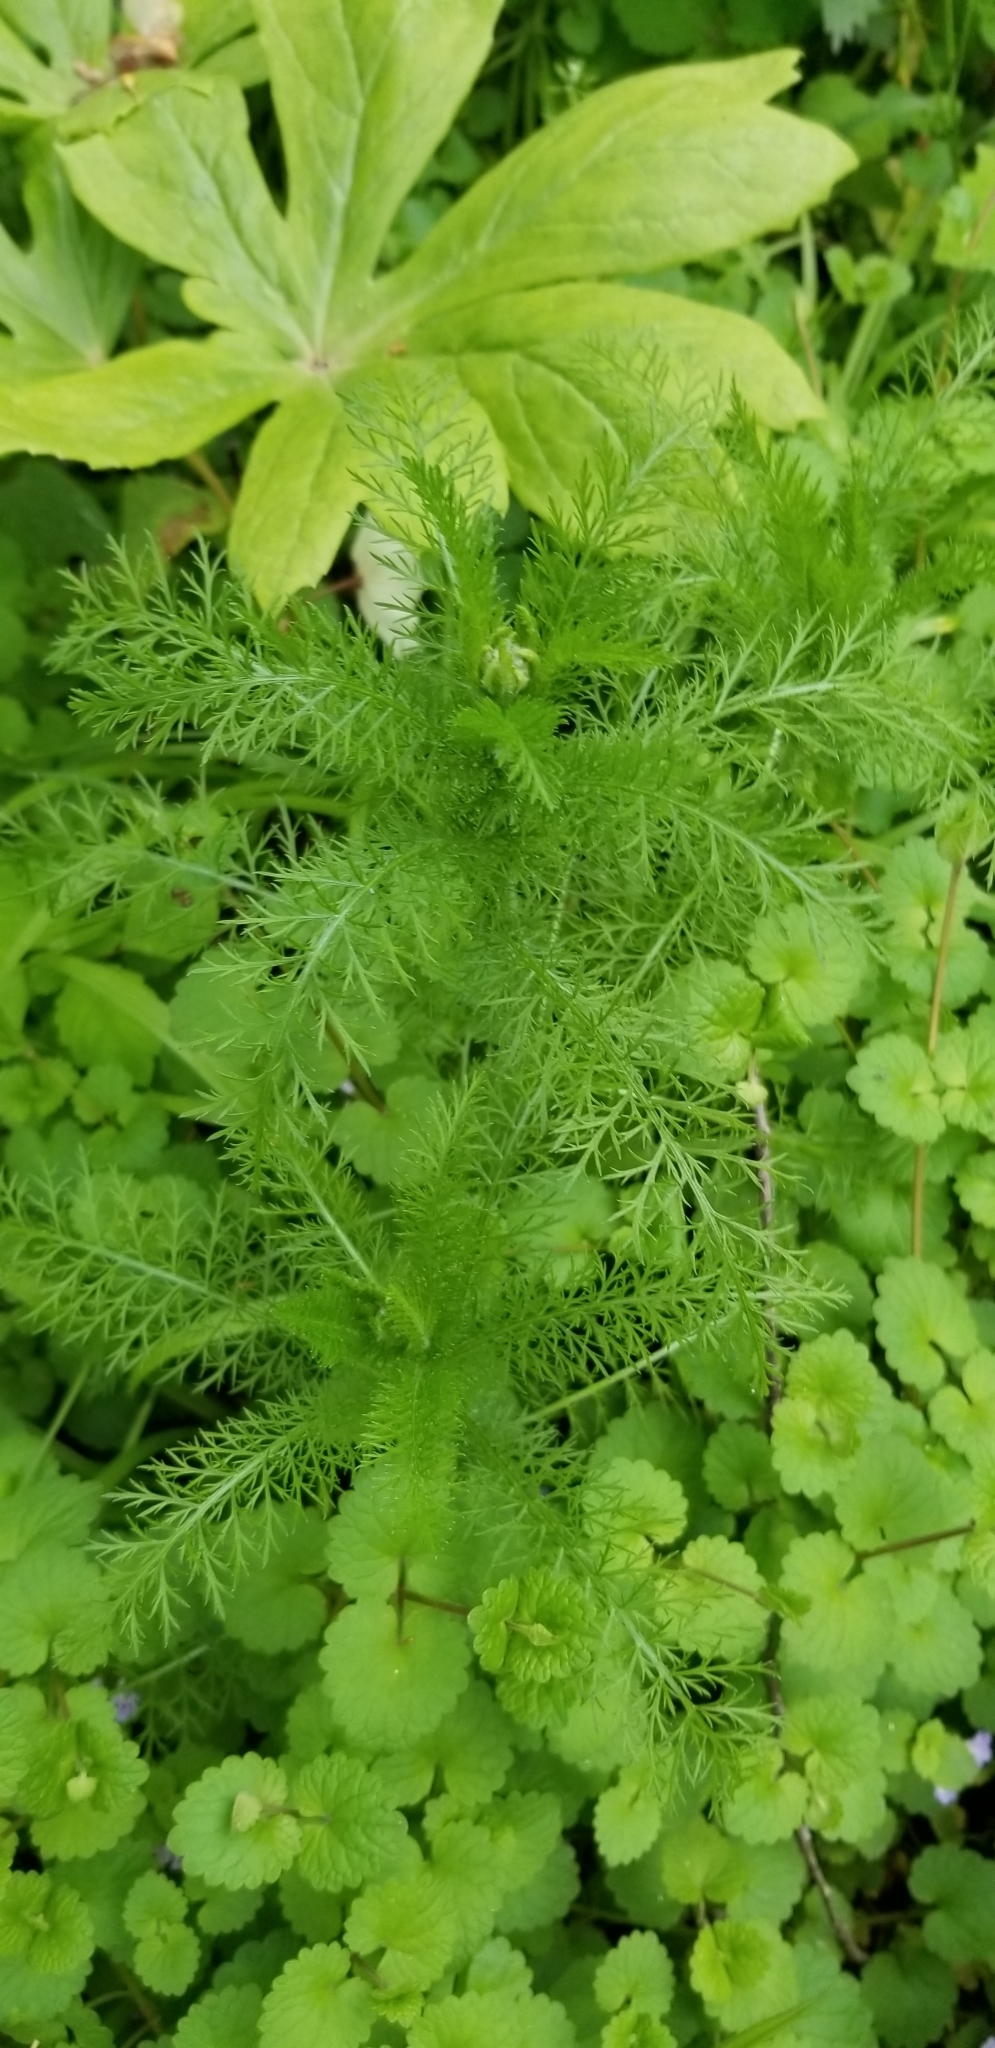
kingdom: Plantae
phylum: Tracheophyta
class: Magnoliopsida
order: Asterales
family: Asteraceae
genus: Achillea
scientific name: Achillea millefolium
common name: Yarrow
